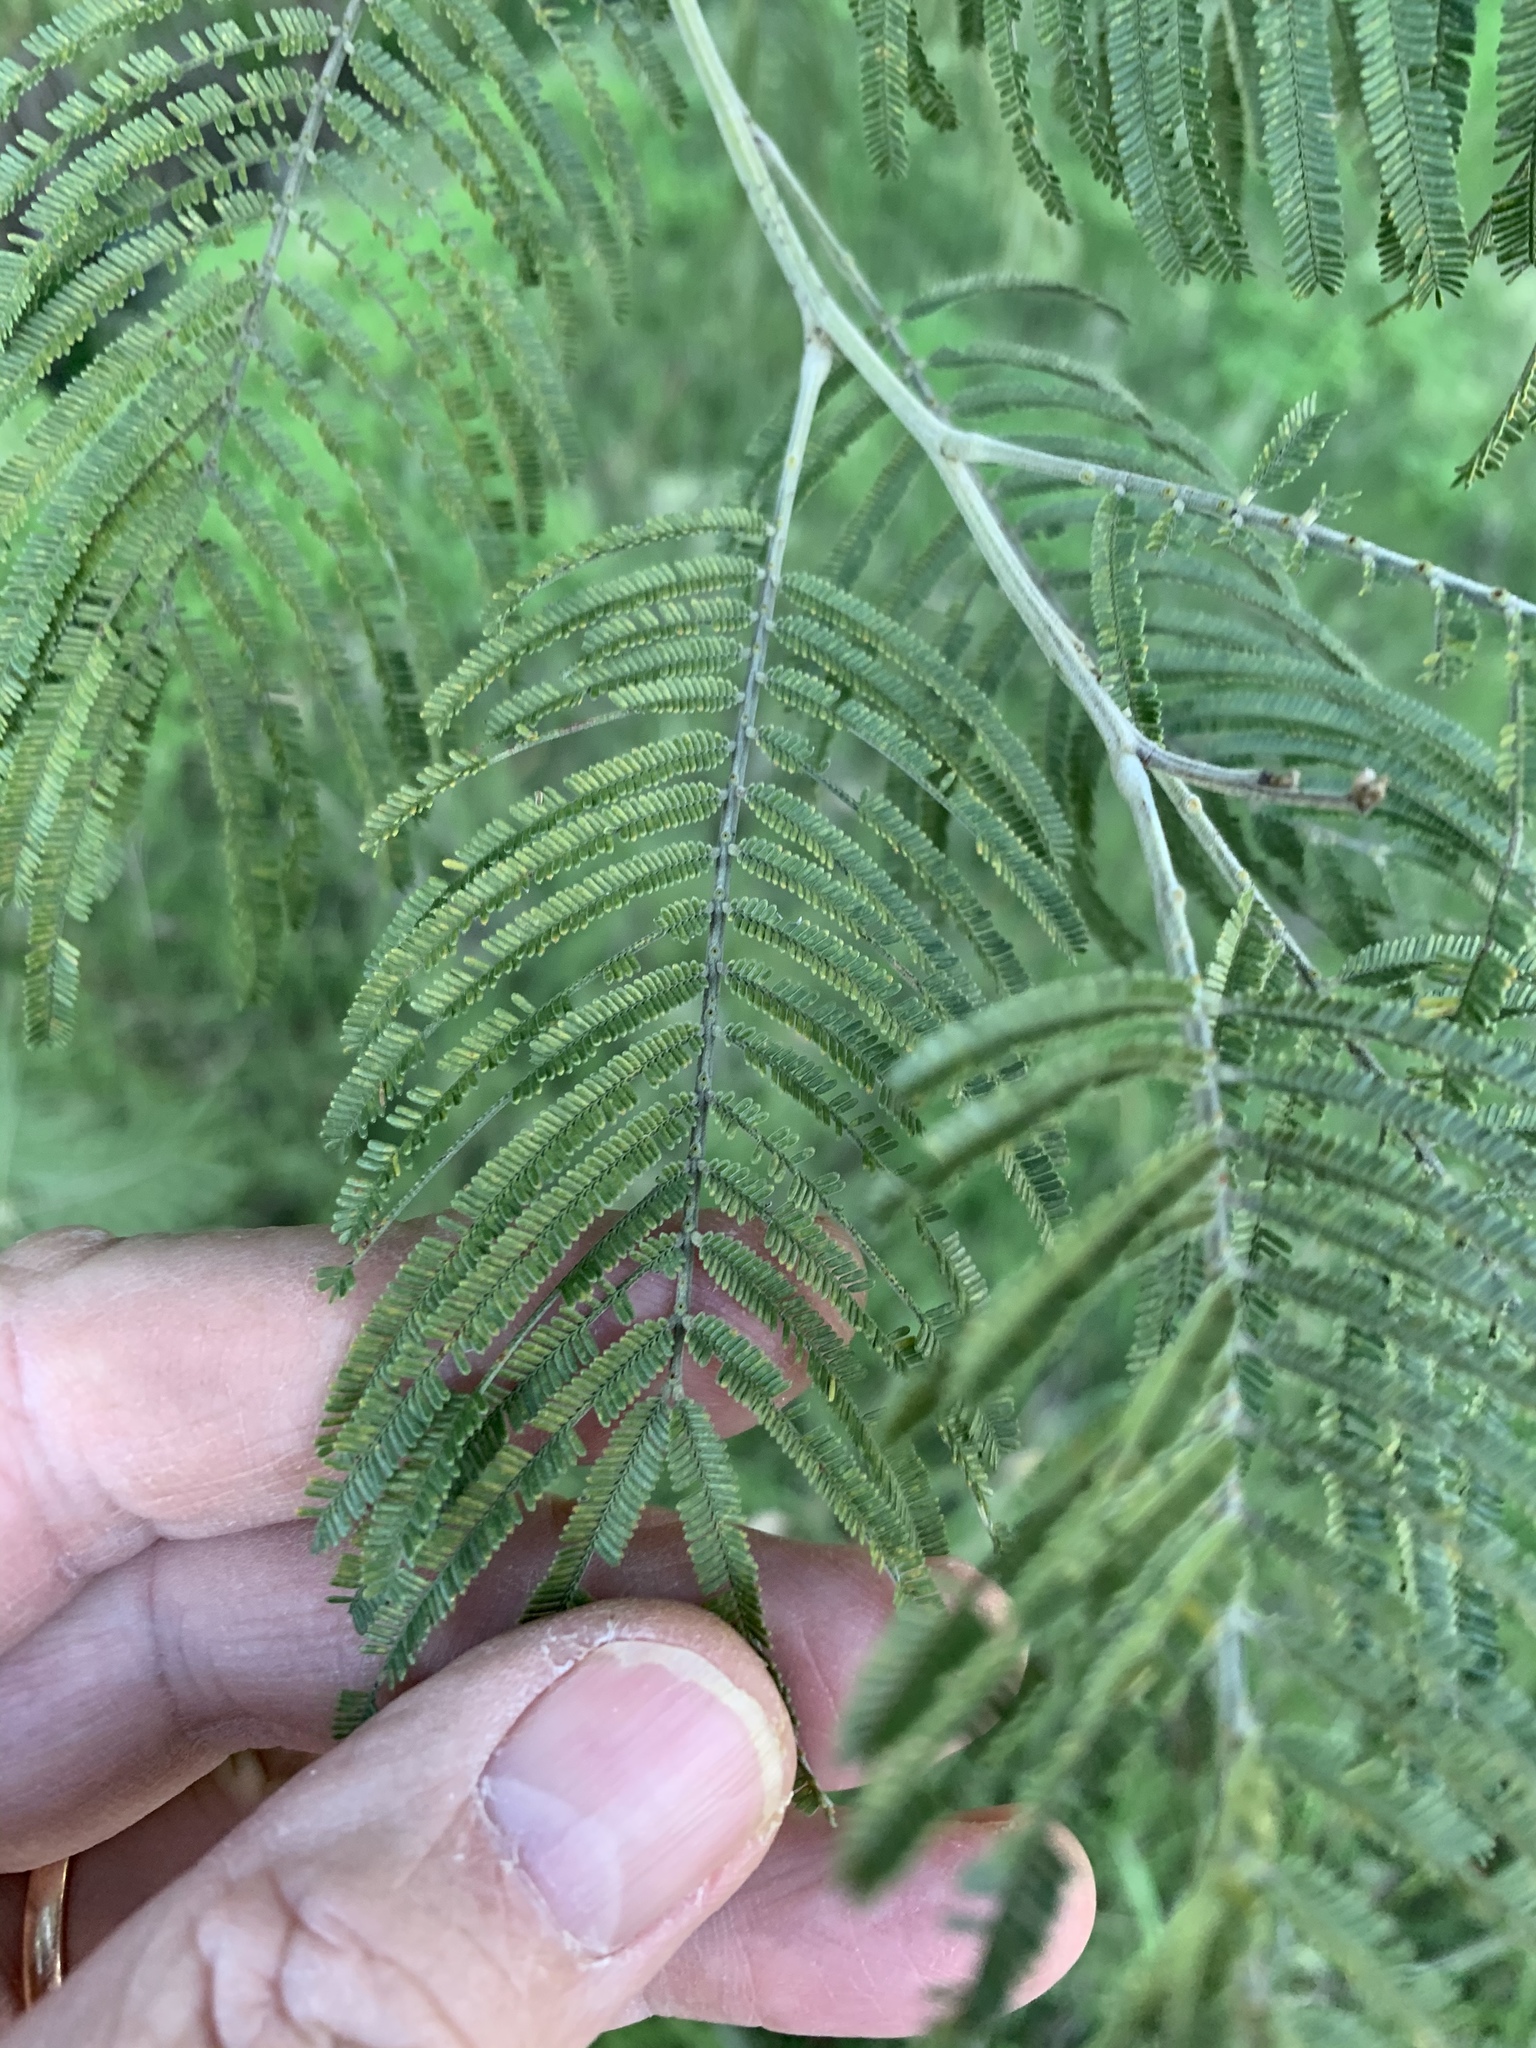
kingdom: Plantae
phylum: Tracheophyta
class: Magnoliopsida
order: Fabales
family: Fabaceae
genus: Acacia
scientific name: Acacia mearnsii
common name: Black wattle
